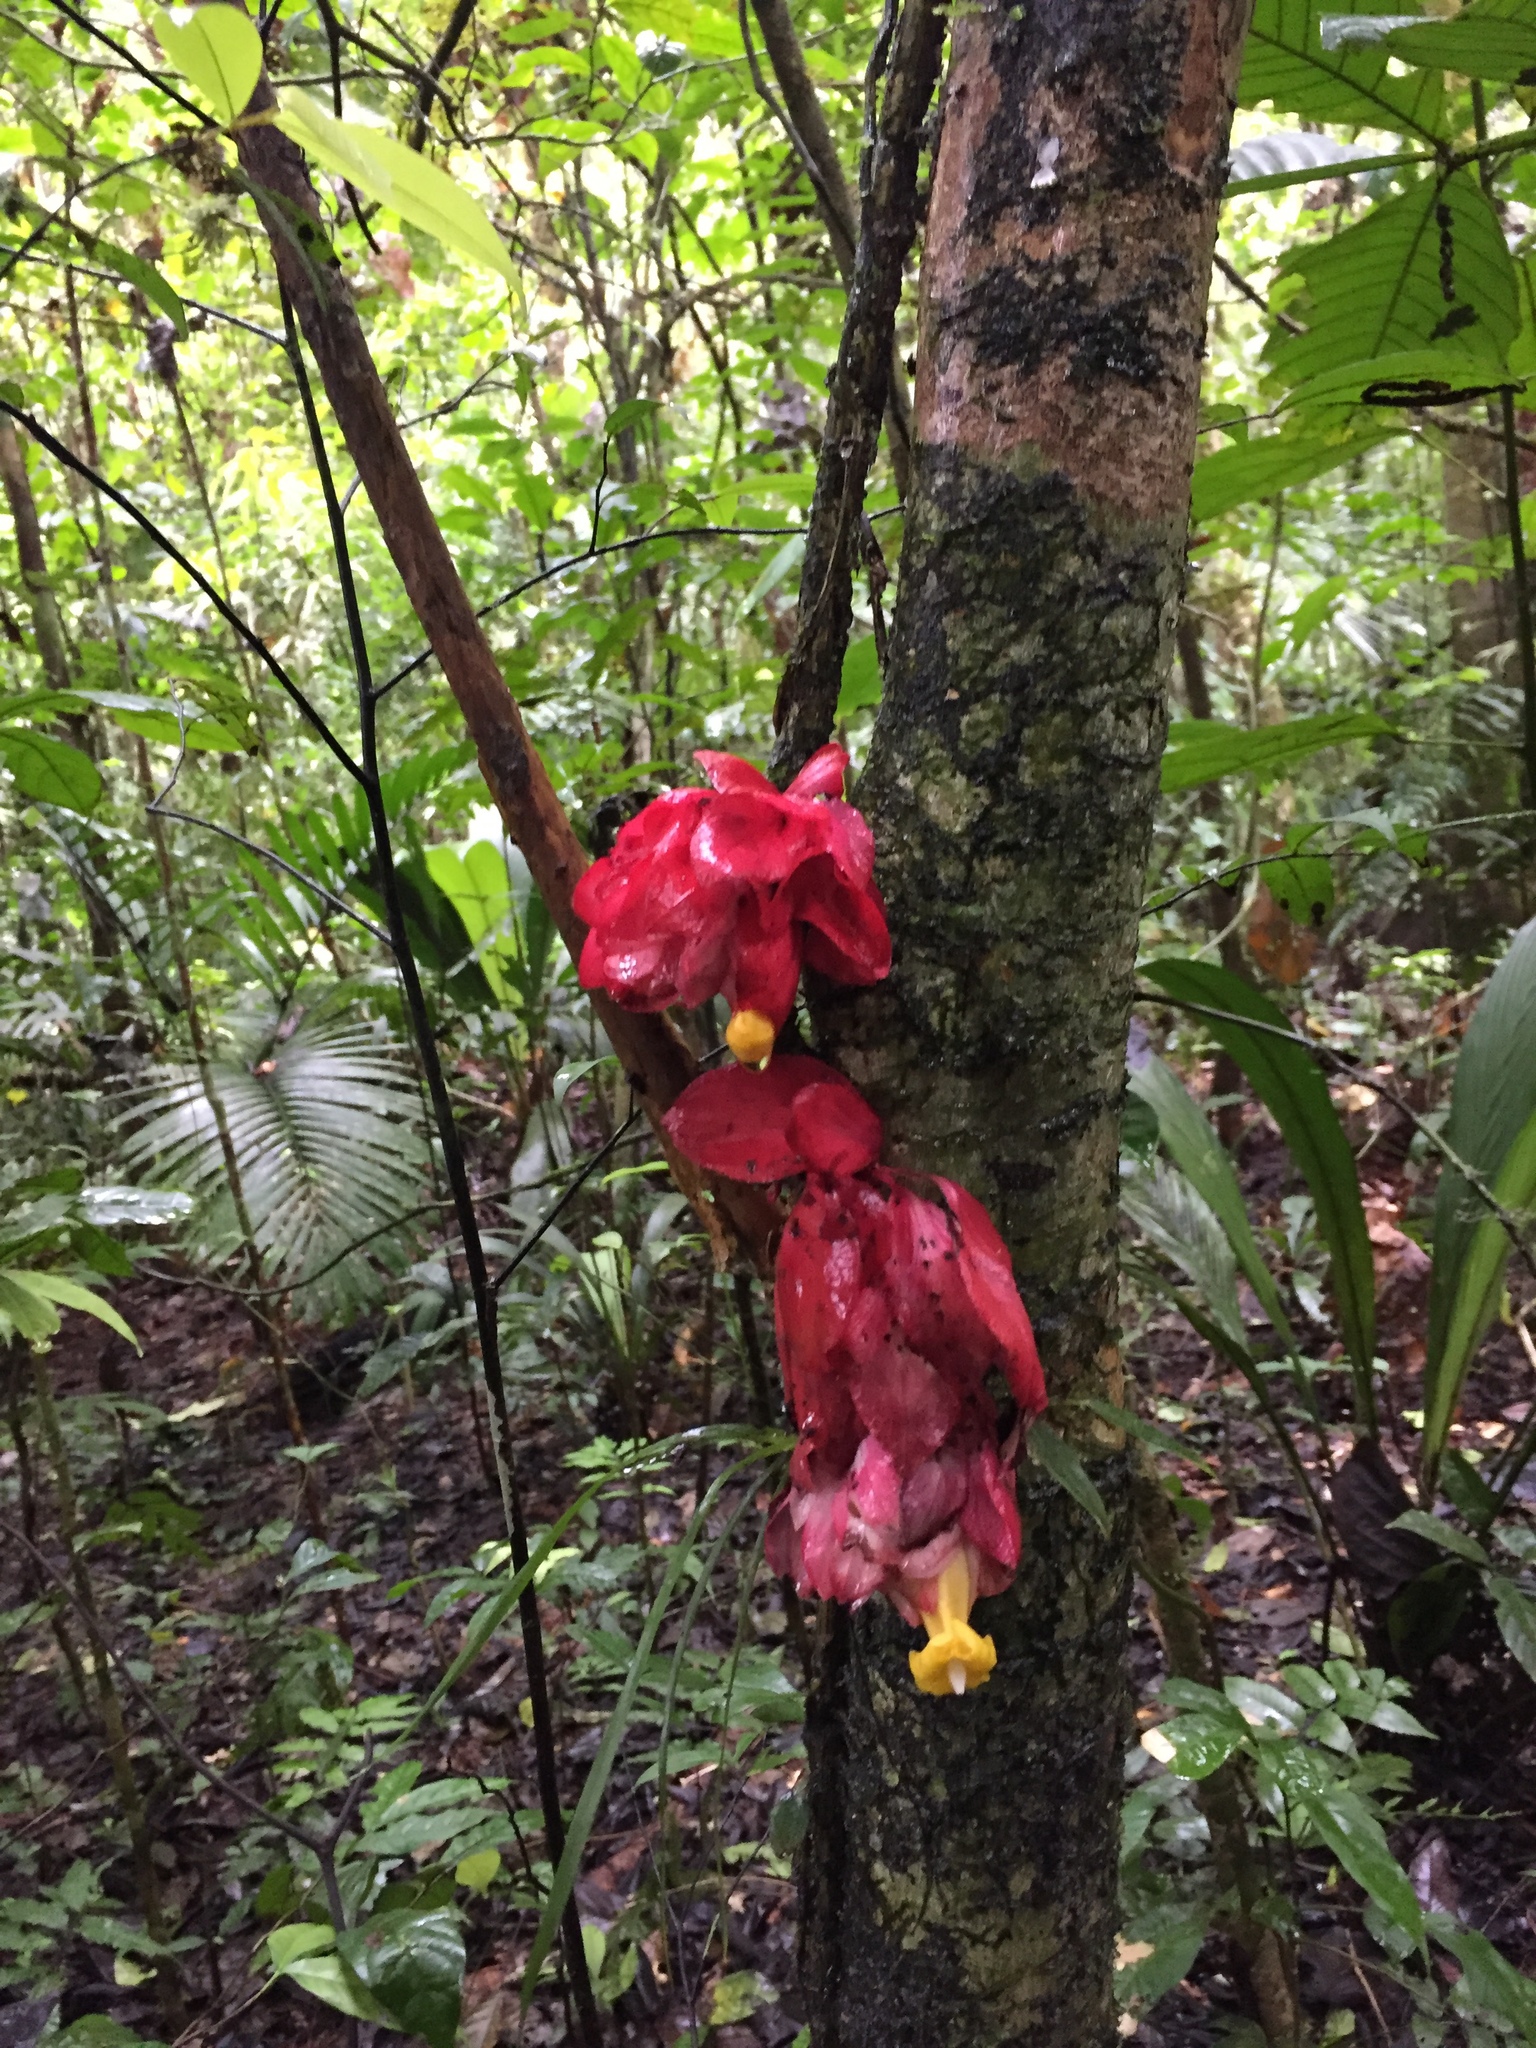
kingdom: Plantae
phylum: Tracheophyta
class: Magnoliopsida
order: Lamiales
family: Gesneriaceae
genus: Drymonia
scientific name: Drymonia coccinea
